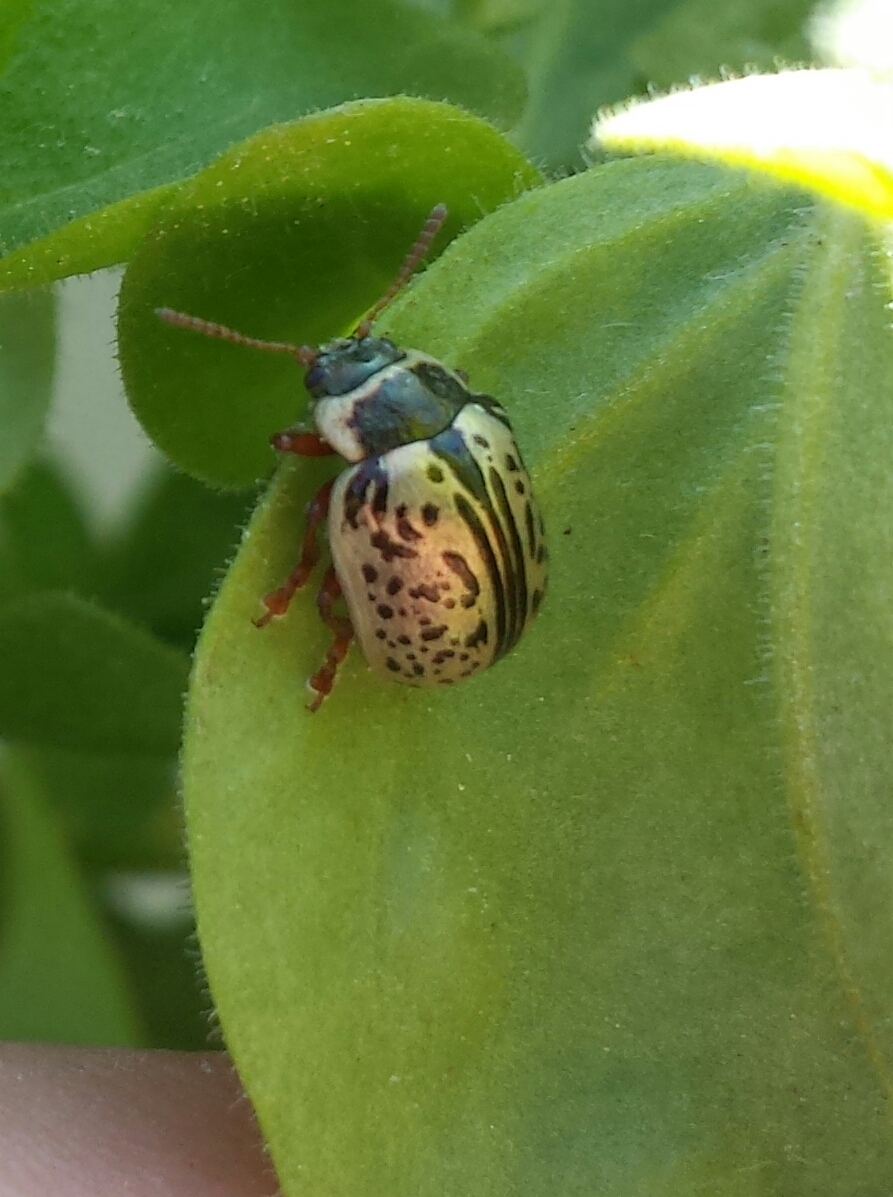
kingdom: Animalia
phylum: Arthropoda
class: Insecta
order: Coleoptera
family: Chrysomelidae
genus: Calligrapha
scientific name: Calligrapha multipunctata
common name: Common willow calligrapher beetle
